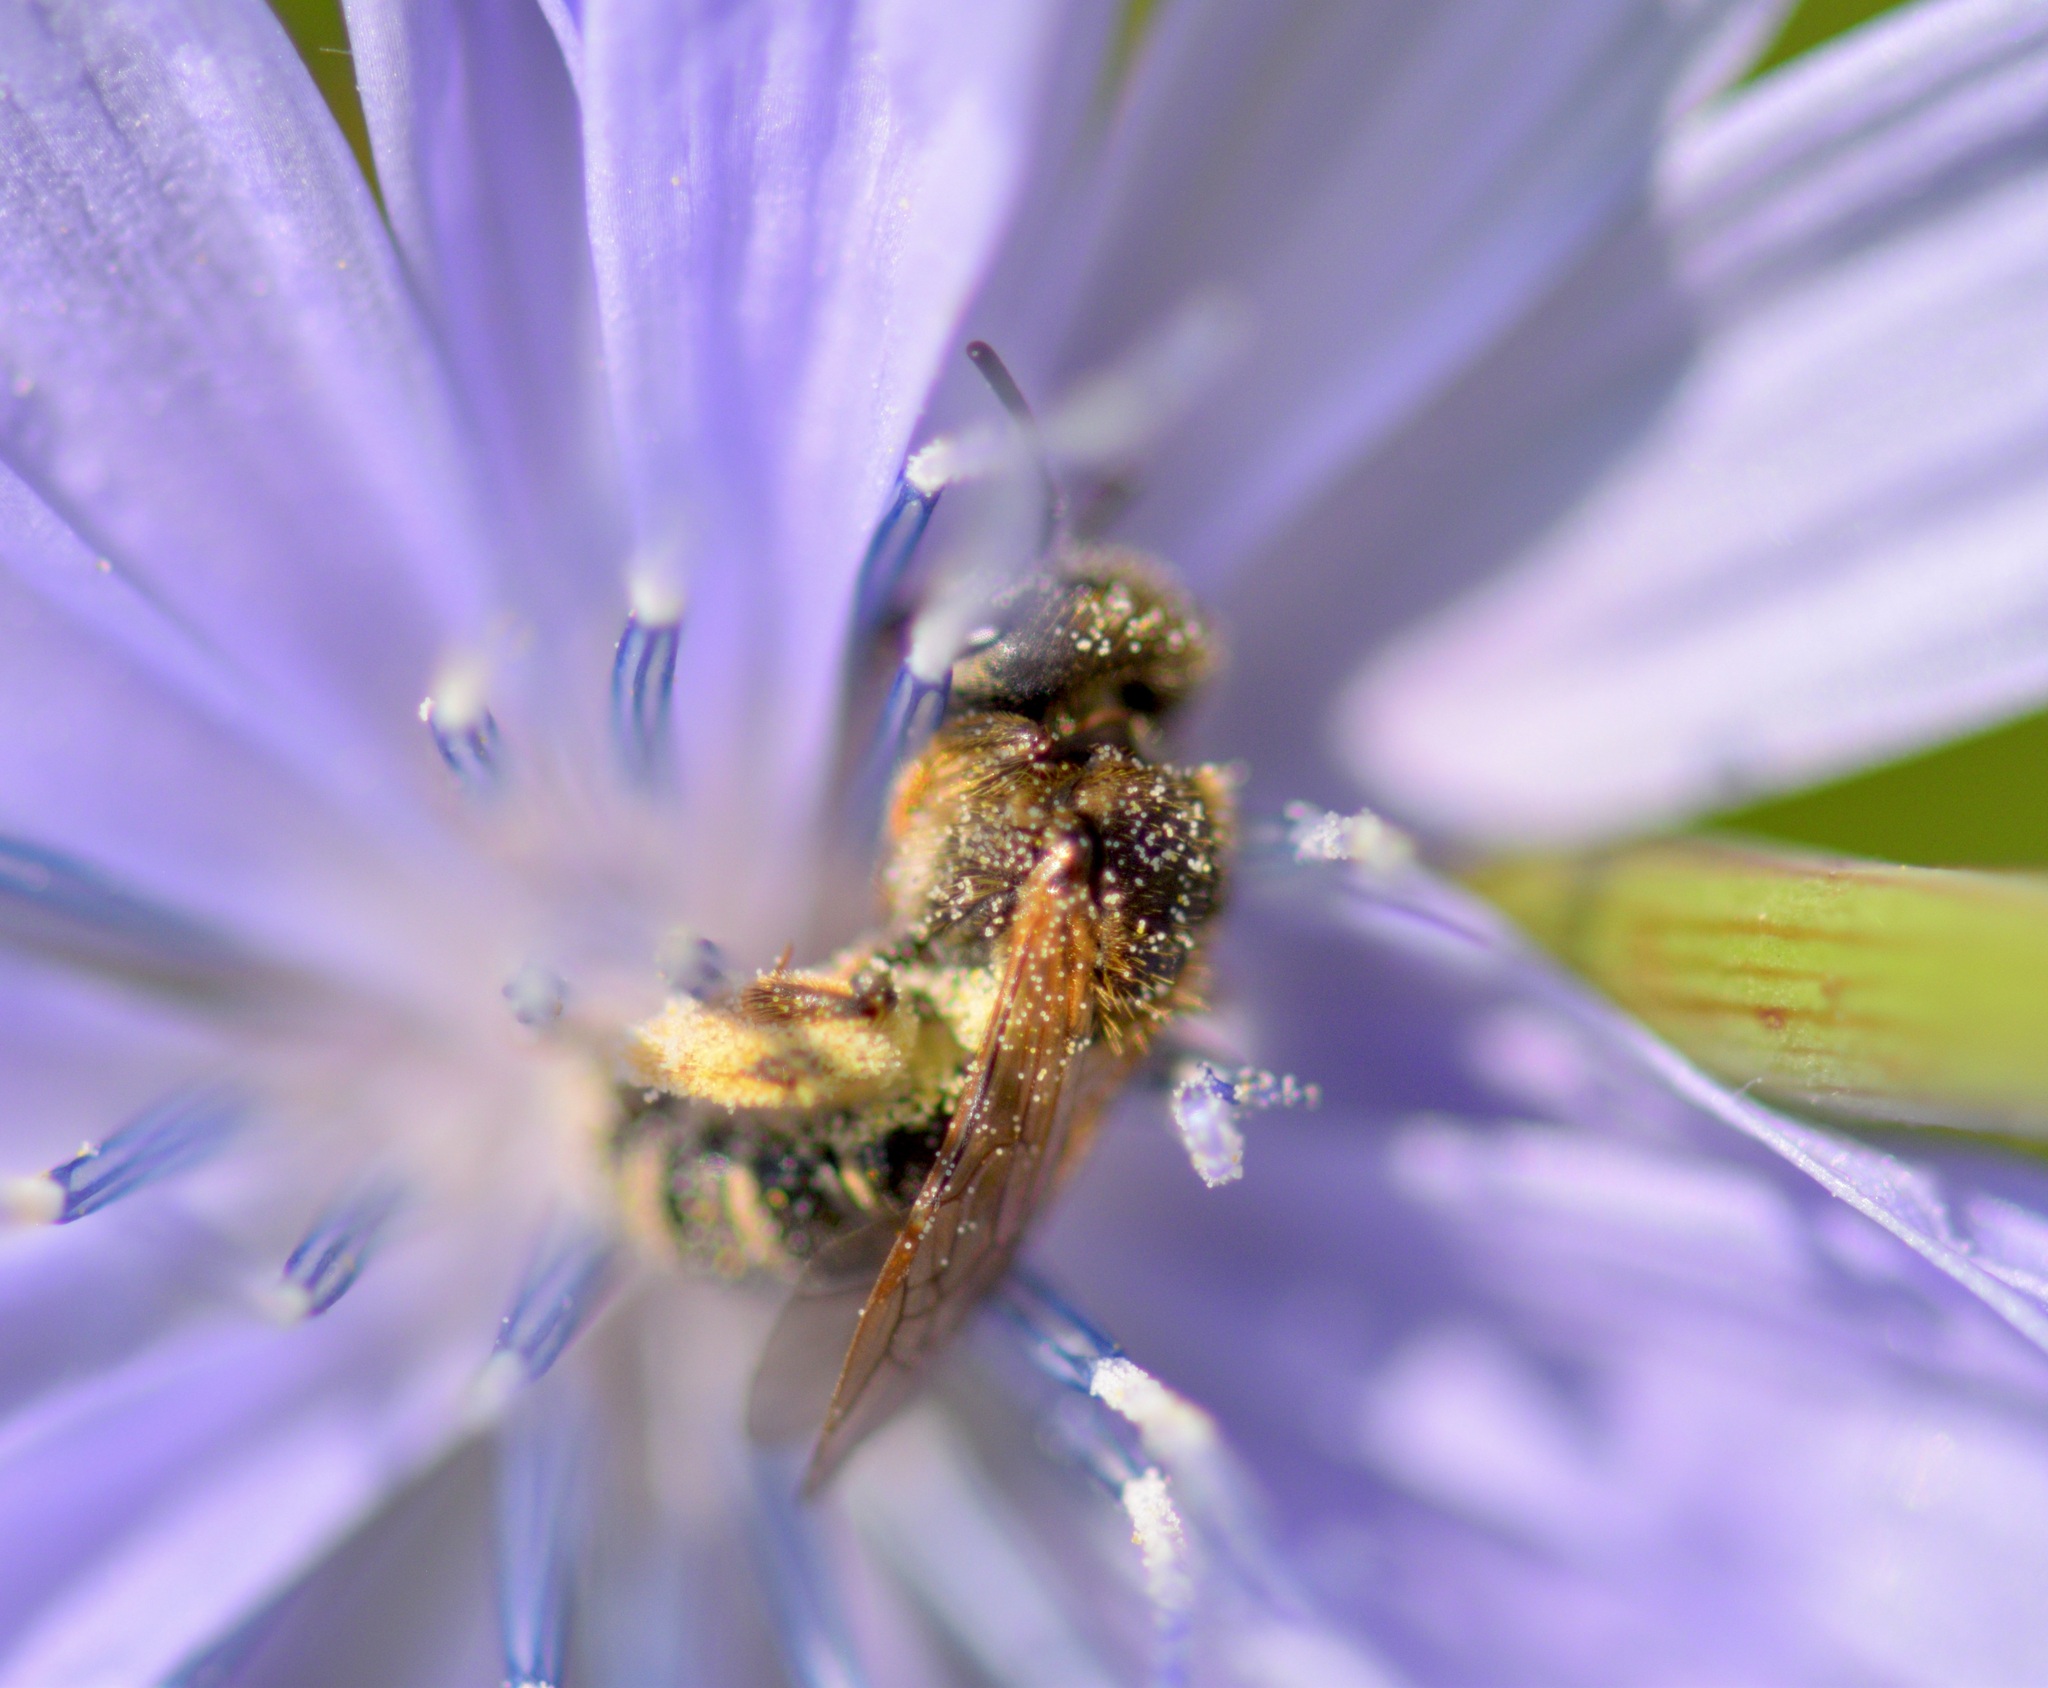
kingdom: Animalia
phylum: Arthropoda
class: Insecta
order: Hymenoptera
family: Halictidae
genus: Halictus
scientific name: Halictus ligatus
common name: Ligated furrow bee
